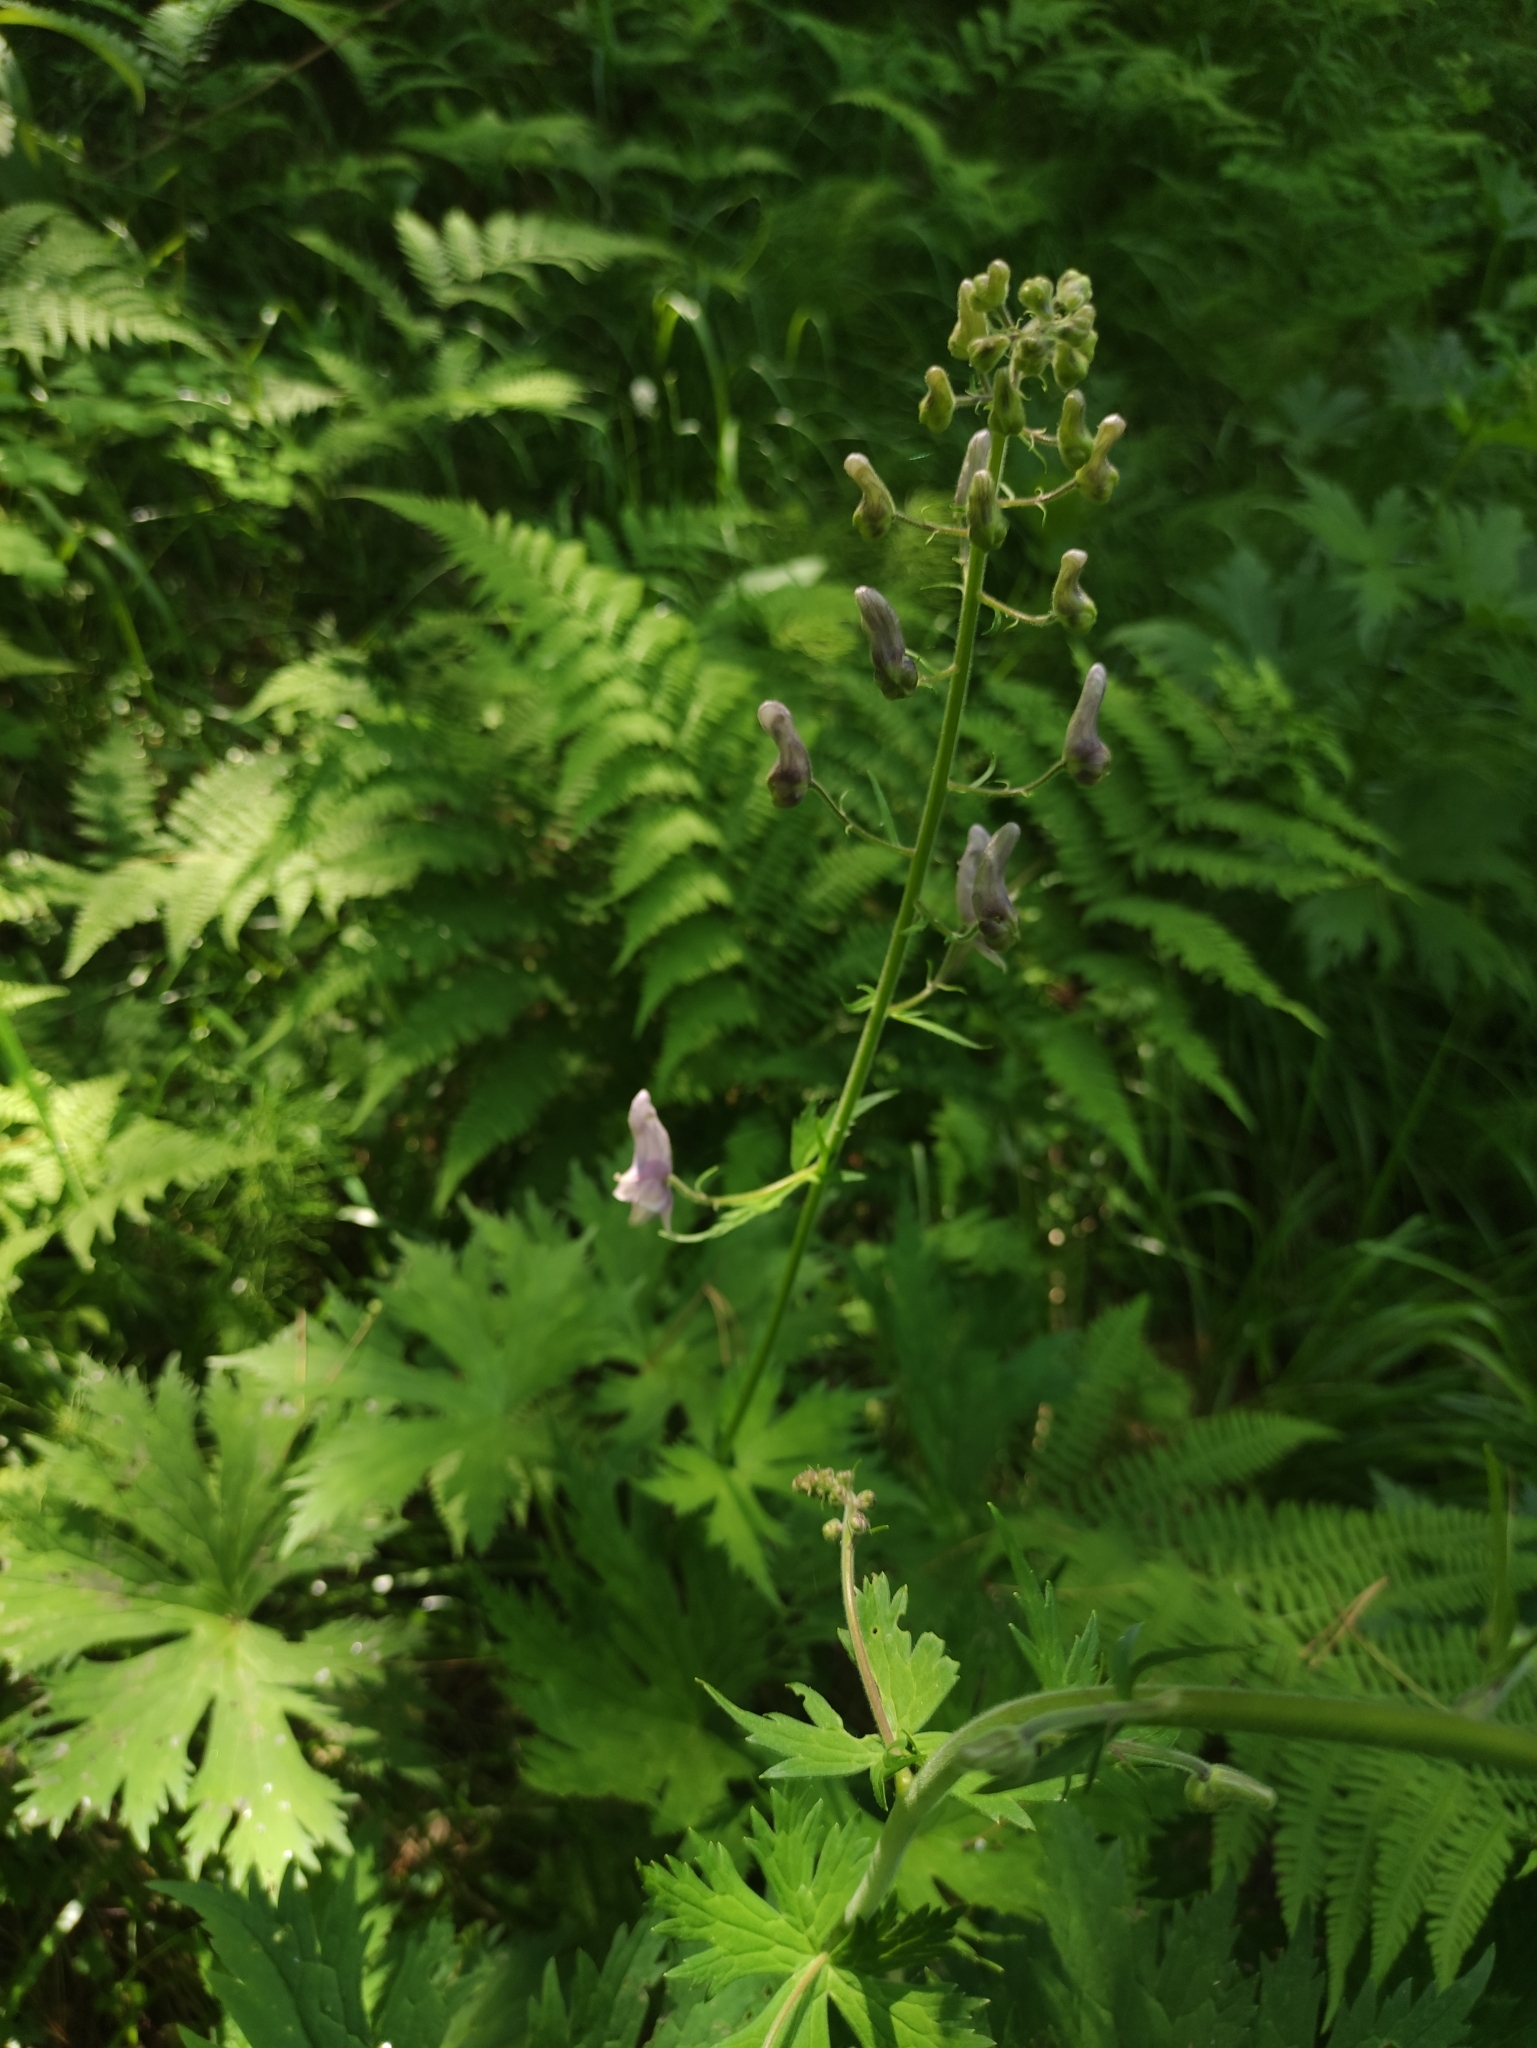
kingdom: Plantae
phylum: Tracheophyta
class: Magnoliopsida
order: Ranunculales
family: Ranunculaceae
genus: Aconitum
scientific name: Aconitum septentrionale
